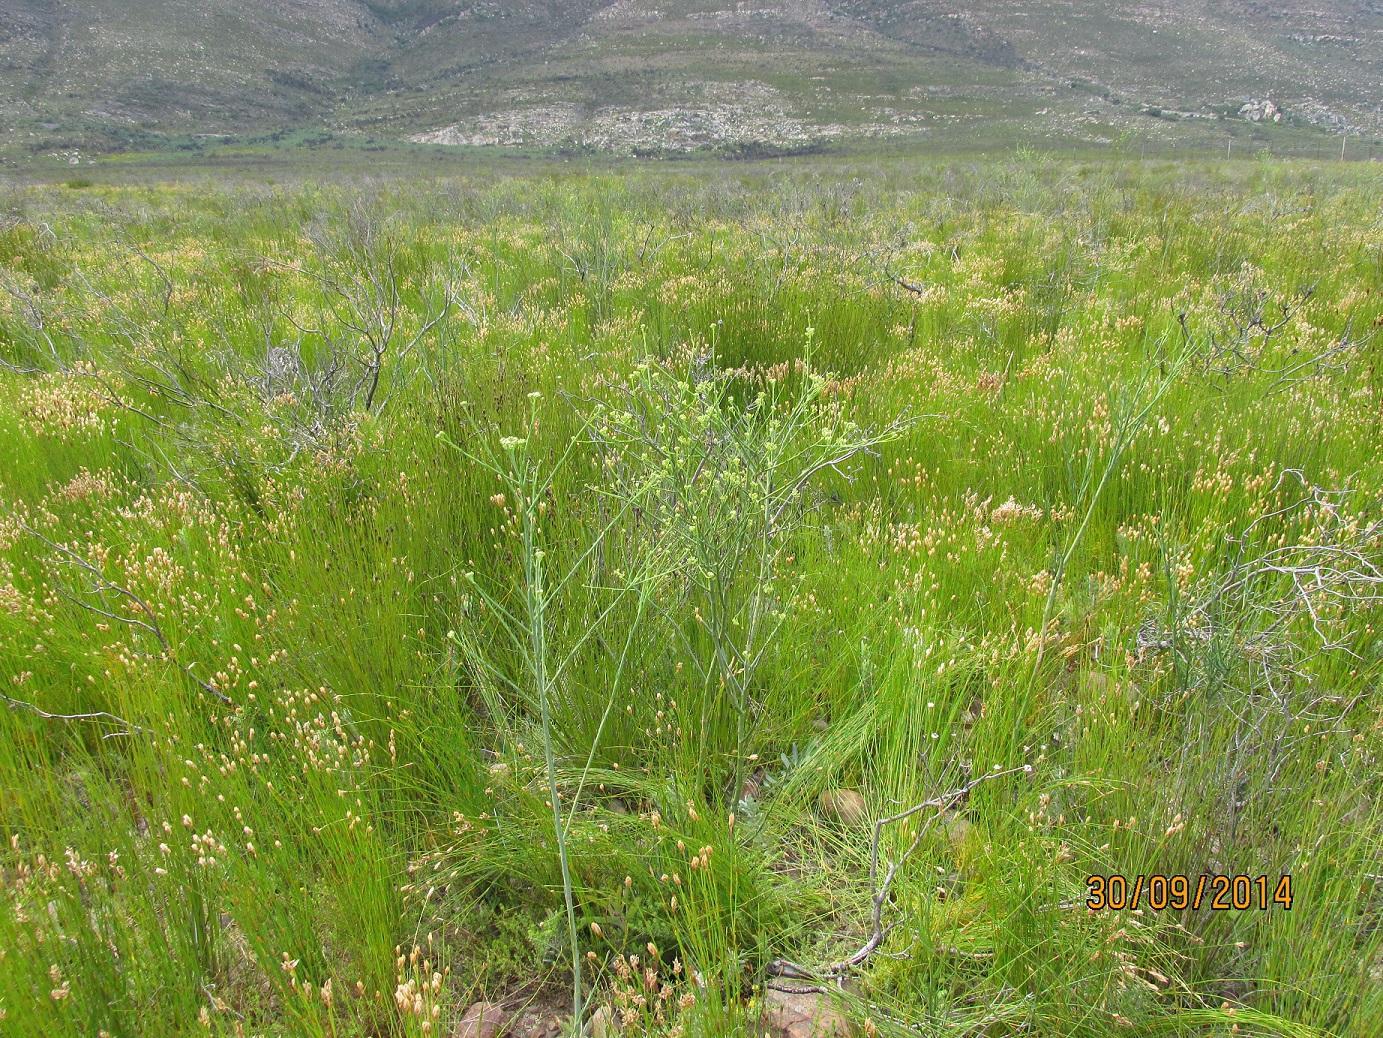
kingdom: Plantae
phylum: Tracheophyta
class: Magnoliopsida
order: Santalales
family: Thesiaceae
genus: Thesium
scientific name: Thesium strictum
